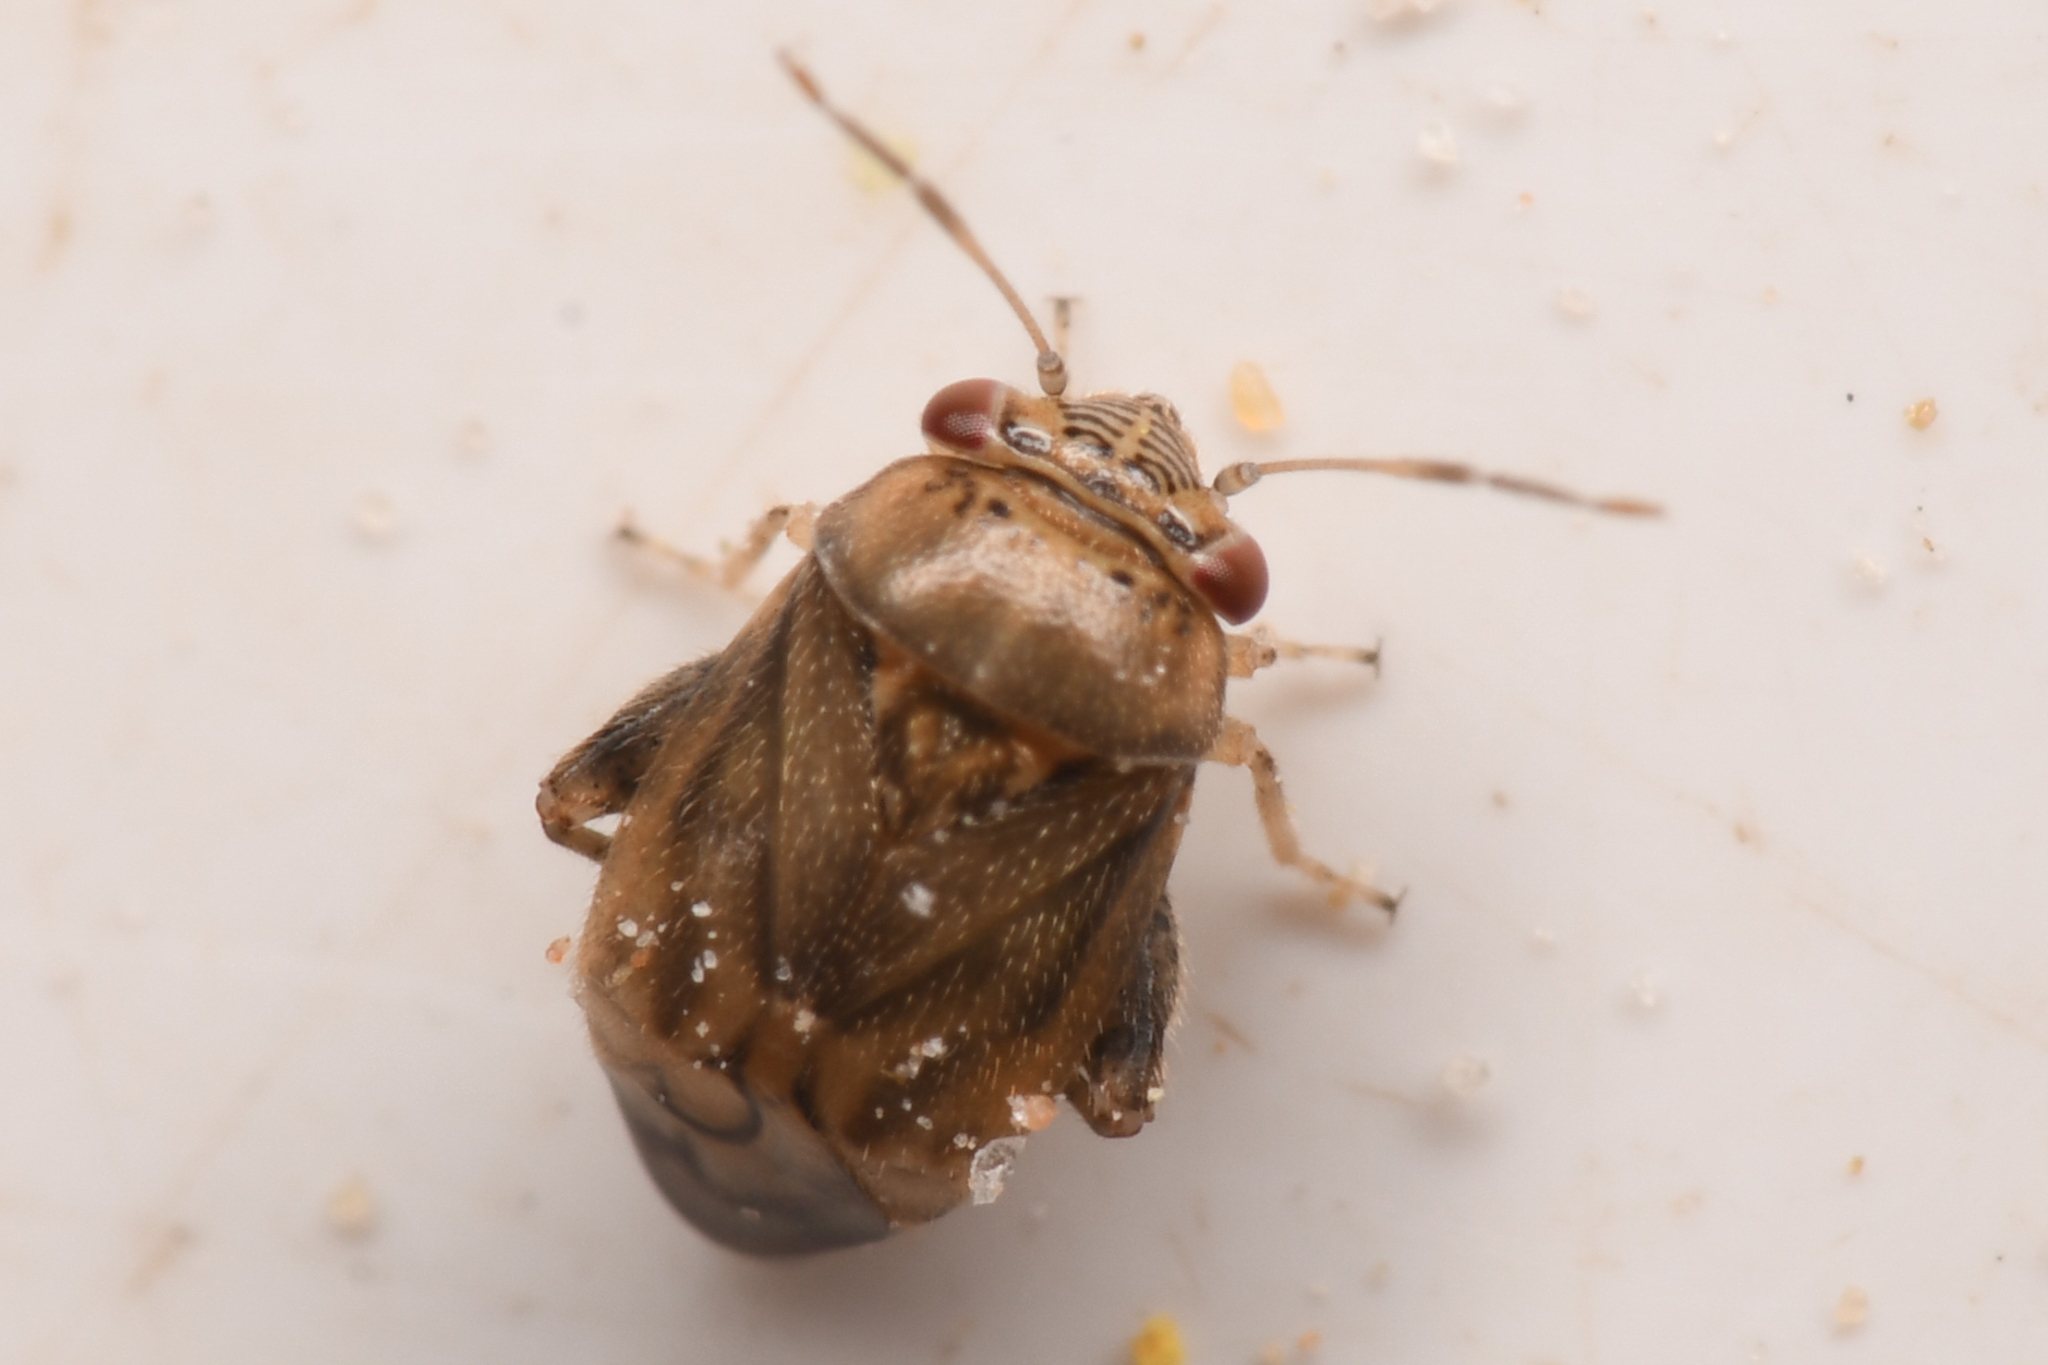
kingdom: Animalia
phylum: Arthropoda
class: Insecta
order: Hemiptera
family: Miridae
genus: Coridromius
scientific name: Coridromius chenopoderis
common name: Plant bug
